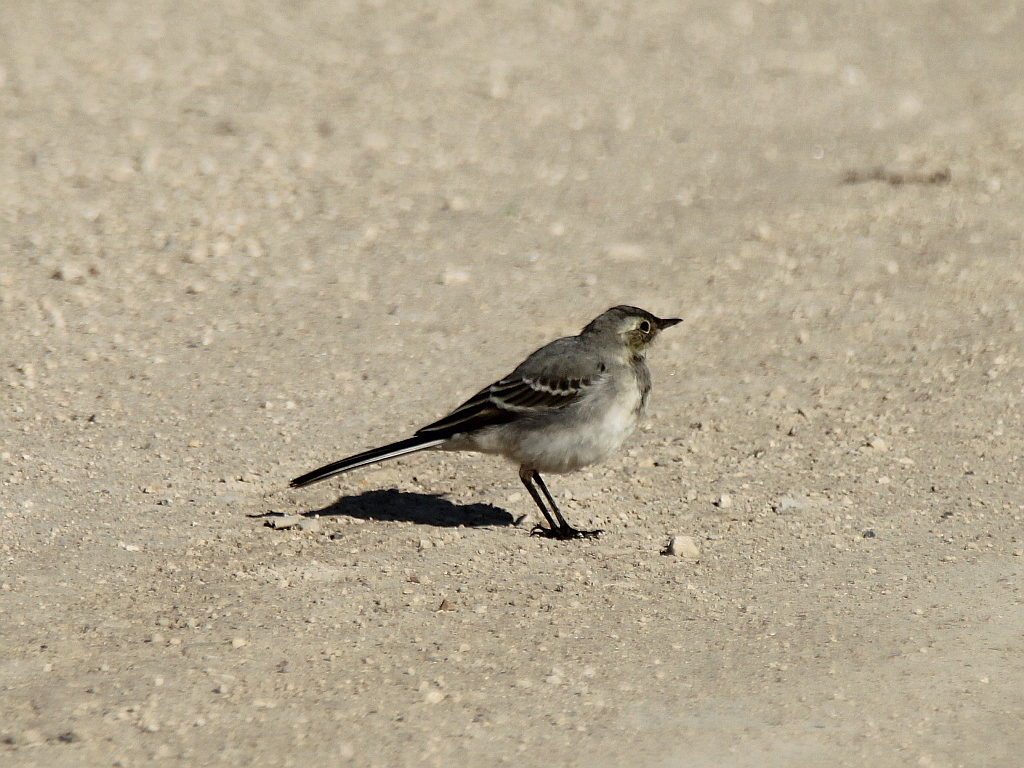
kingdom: Animalia
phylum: Chordata
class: Aves
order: Passeriformes
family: Motacillidae
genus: Motacilla
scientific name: Motacilla alba
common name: White wagtail
